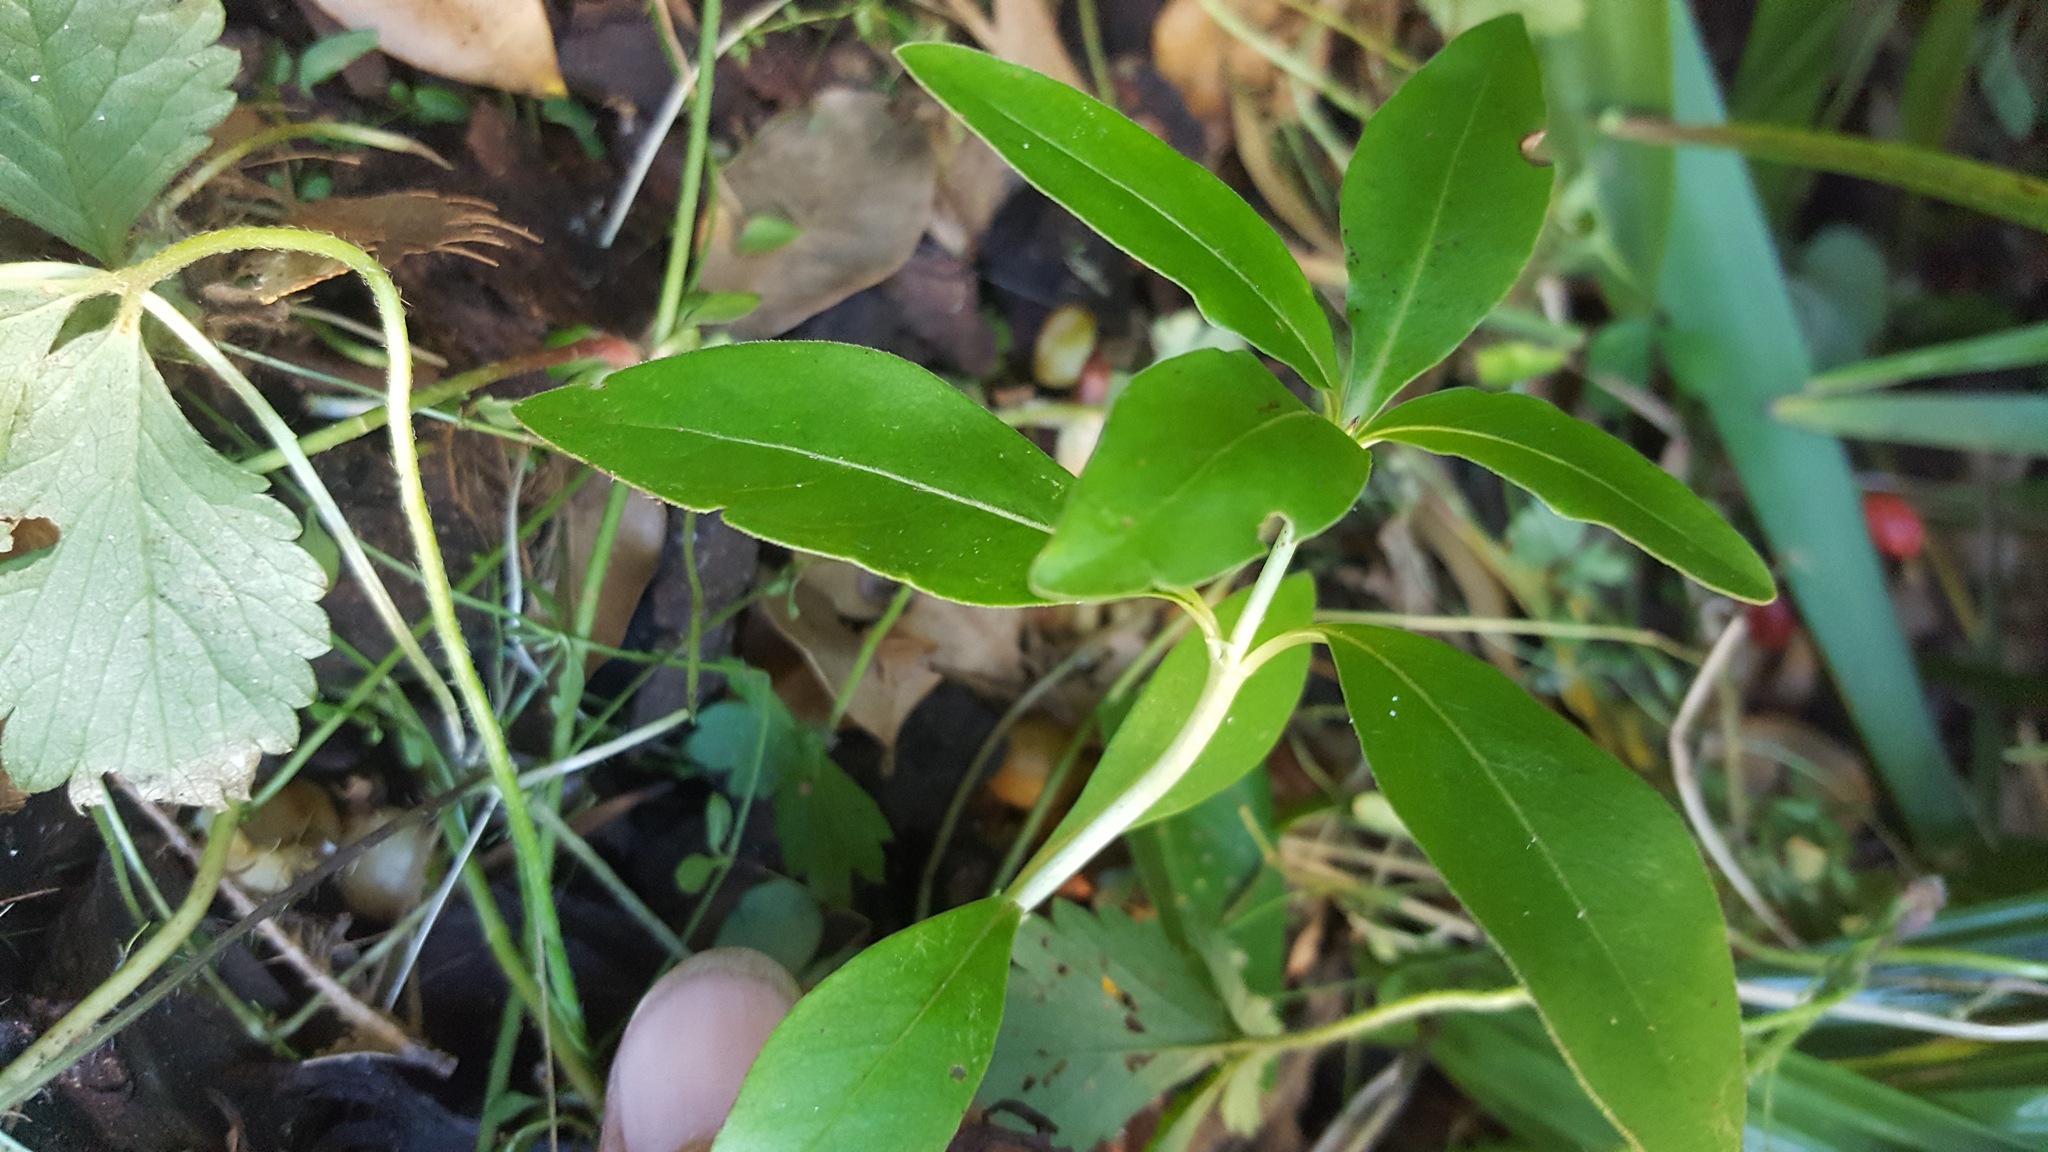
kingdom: Plantae
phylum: Tracheophyta
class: Magnoliopsida
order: Gentianales
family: Rubiaceae
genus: Coprosma
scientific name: Coprosma robusta
